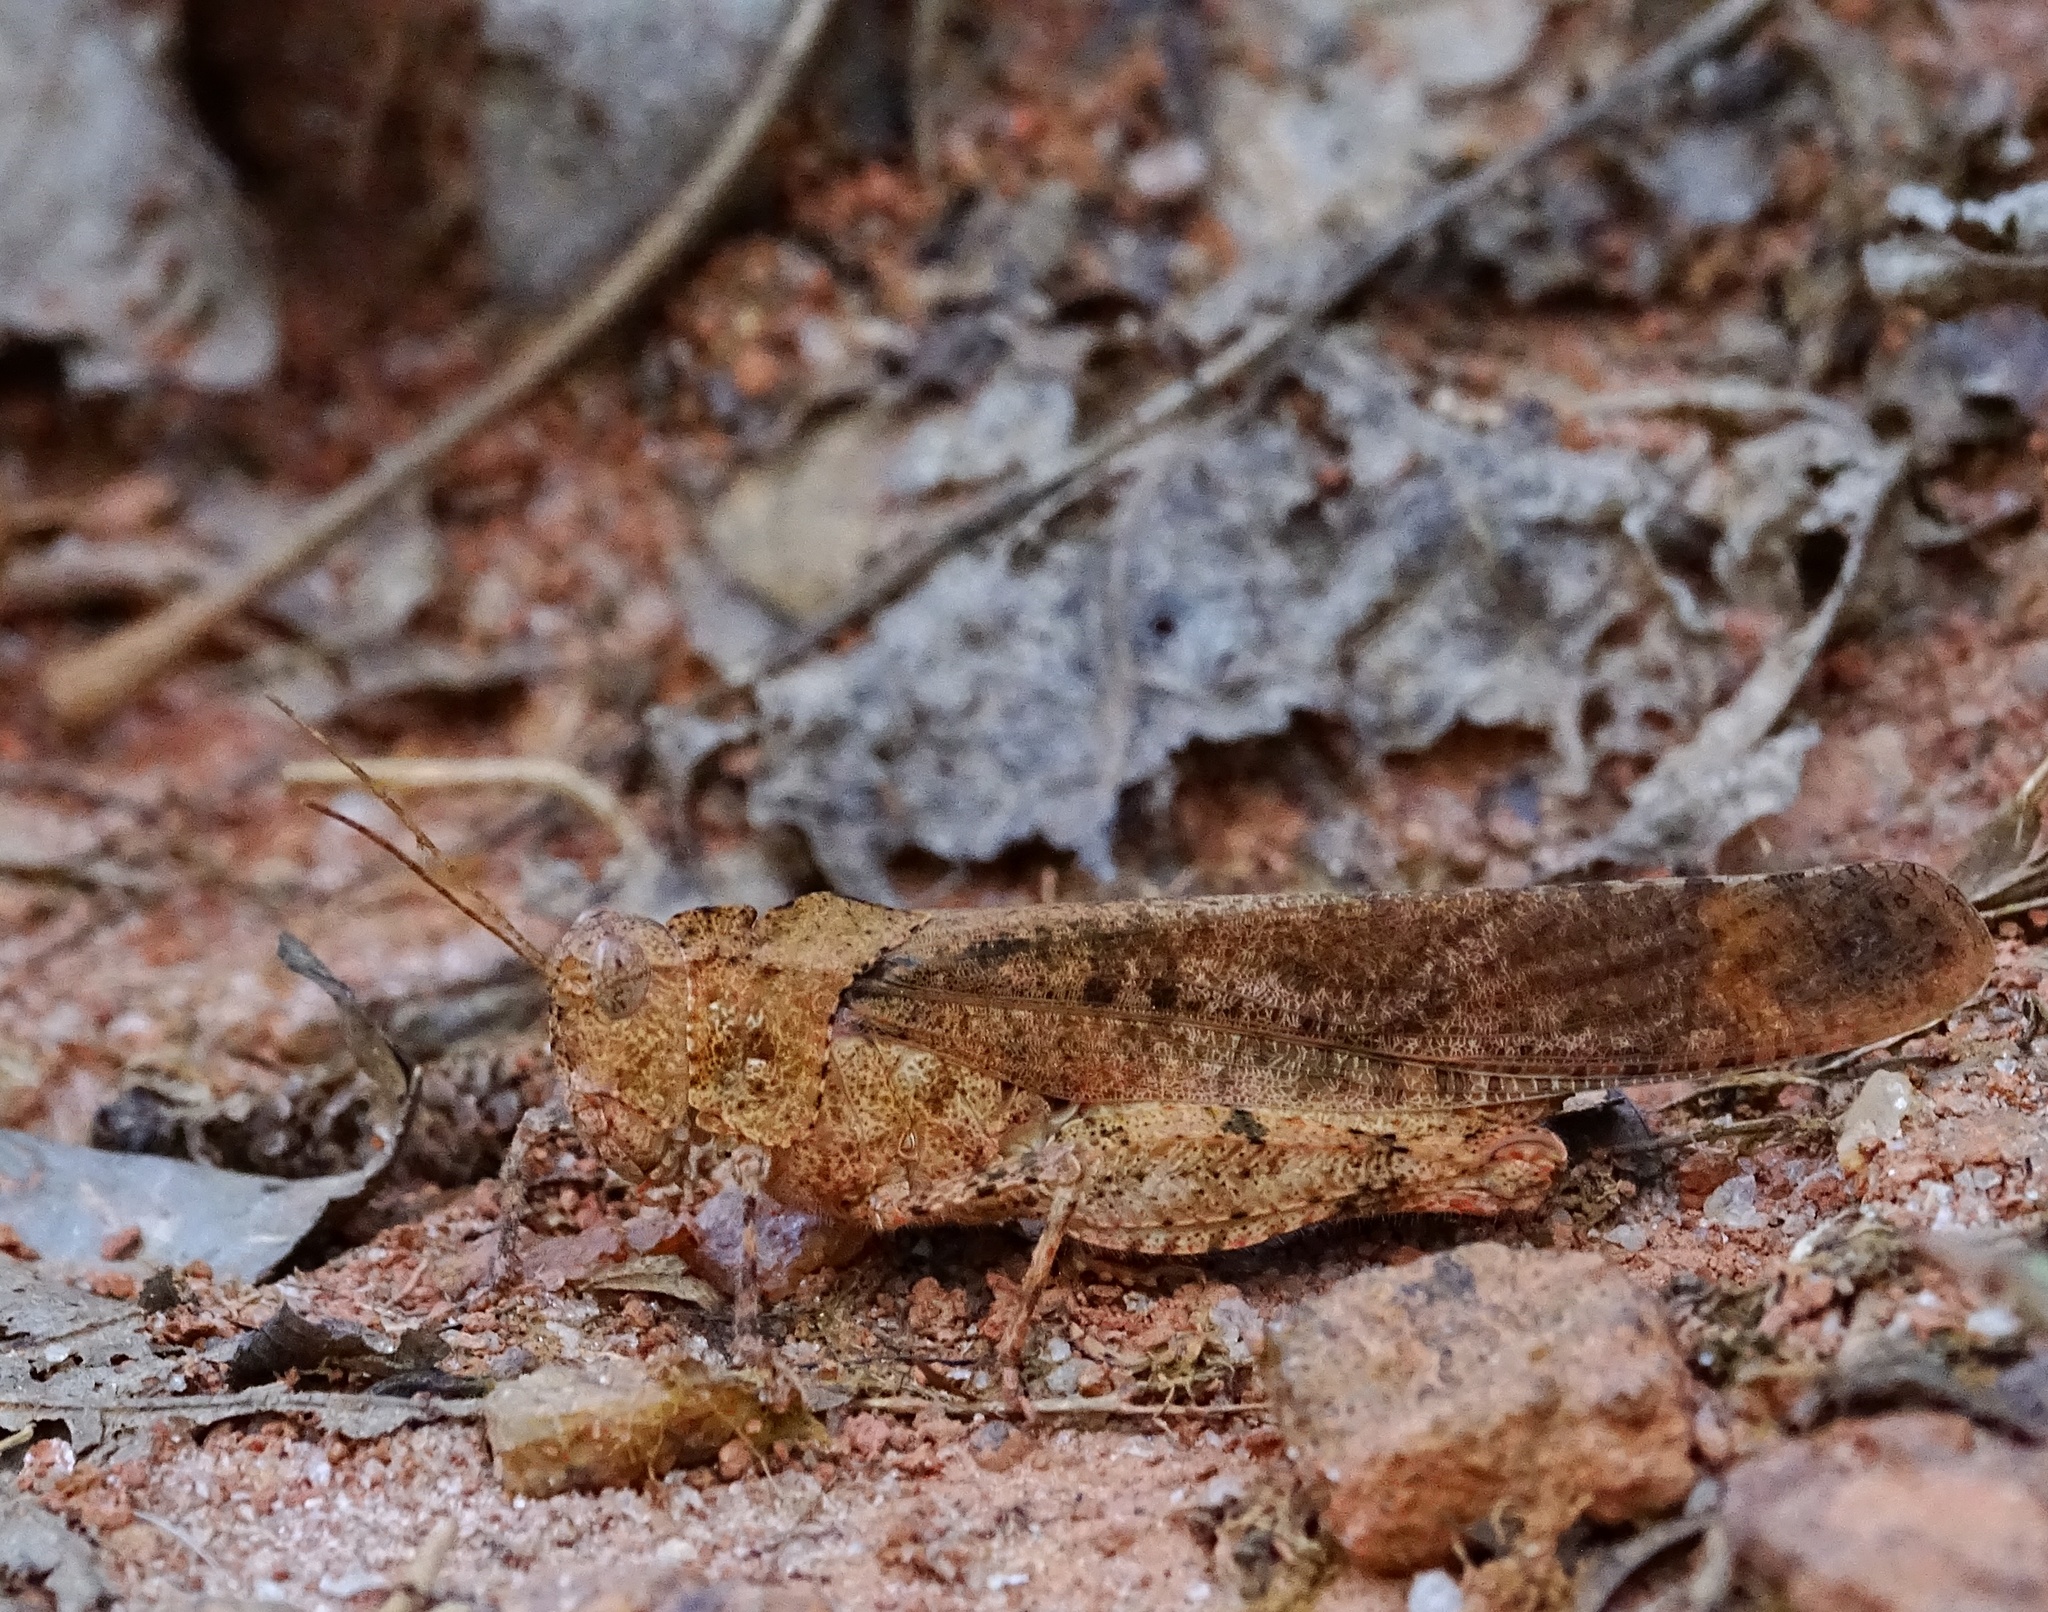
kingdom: Animalia
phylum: Arthropoda
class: Insecta
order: Orthoptera
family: Acrididae
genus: Dissosteira
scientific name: Dissosteira carolina
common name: Carolina grasshopper
